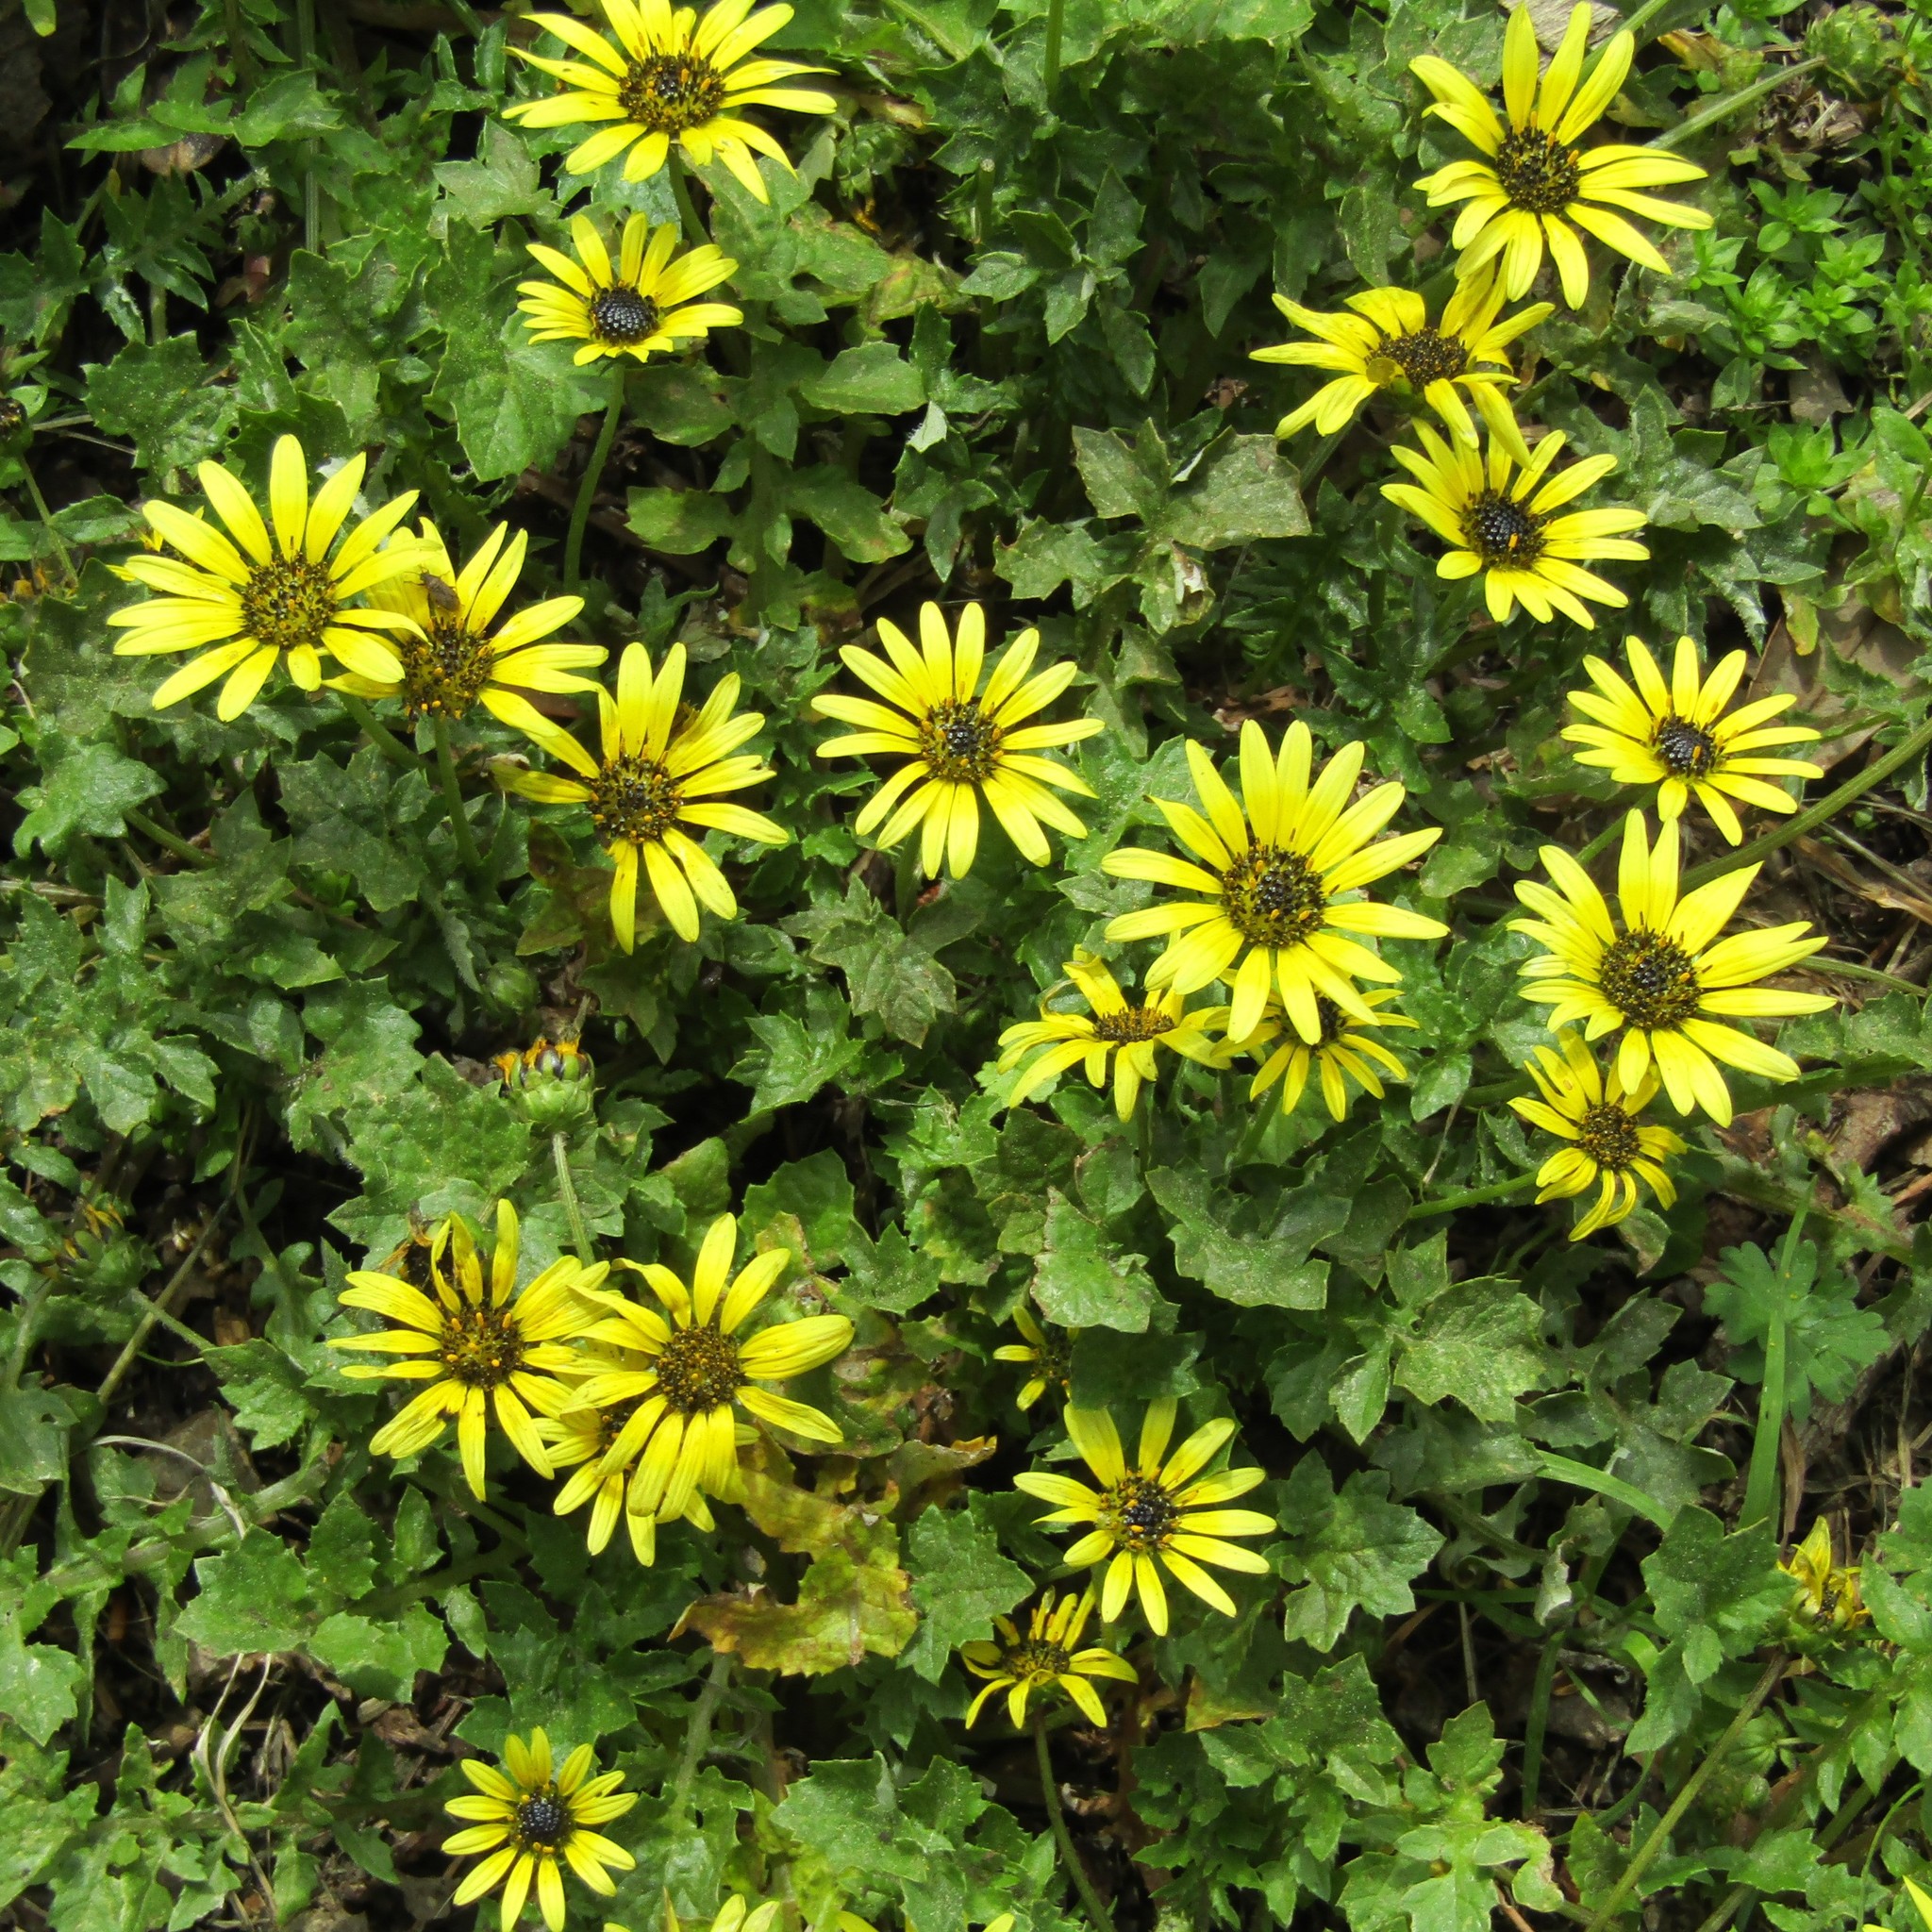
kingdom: Plantae
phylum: Tracheophyta
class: Magnoliopsida
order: Asterales
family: Asteraceae
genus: Arctotheca
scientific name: Arctotheca calendula
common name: Capeweed
